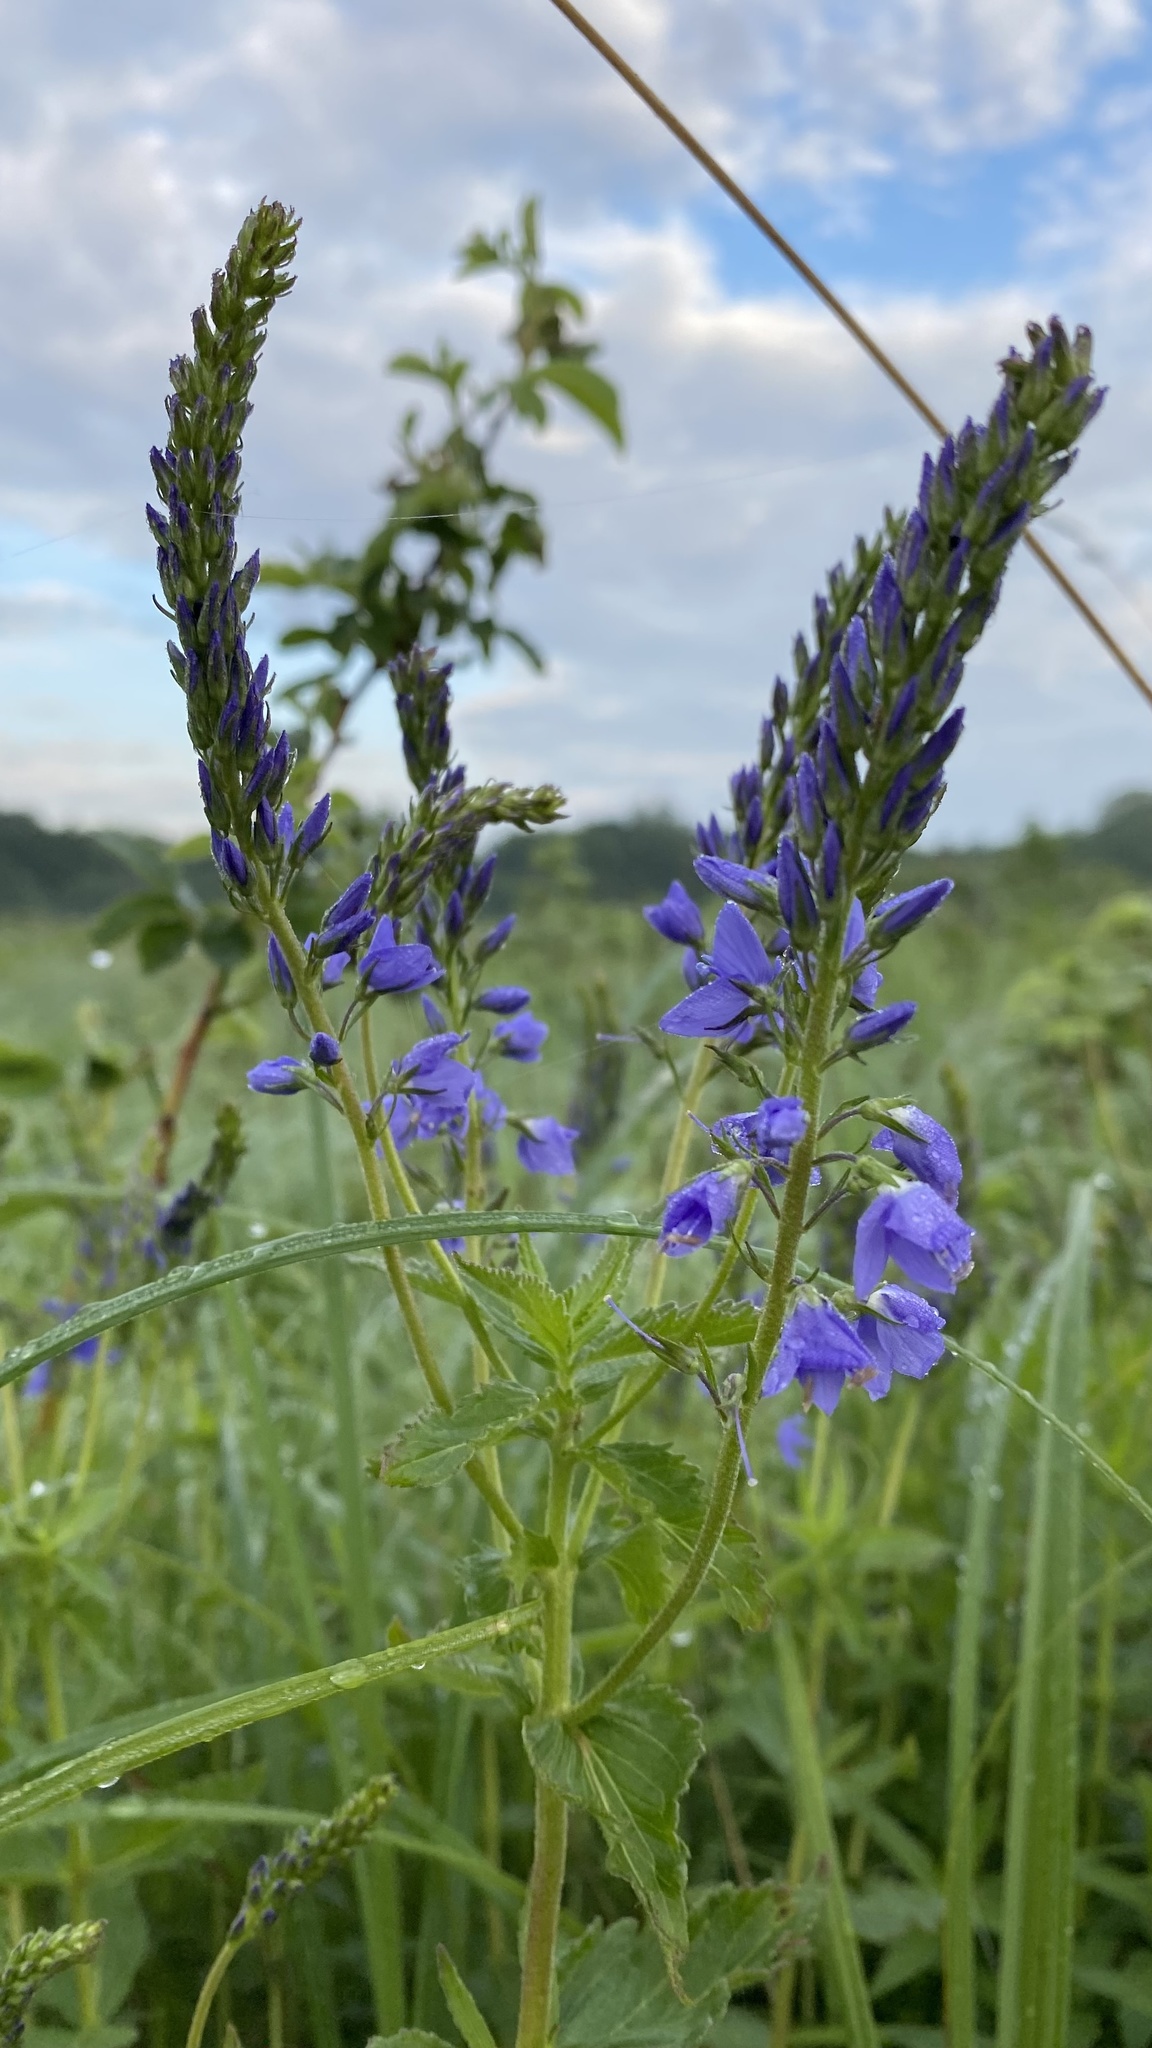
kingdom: Plantae
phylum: Tracheophyta
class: Magnoliopsida
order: Lamiales
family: Plantaginaceae
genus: Veronica
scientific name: Veronica teucrium
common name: Large speedwell
